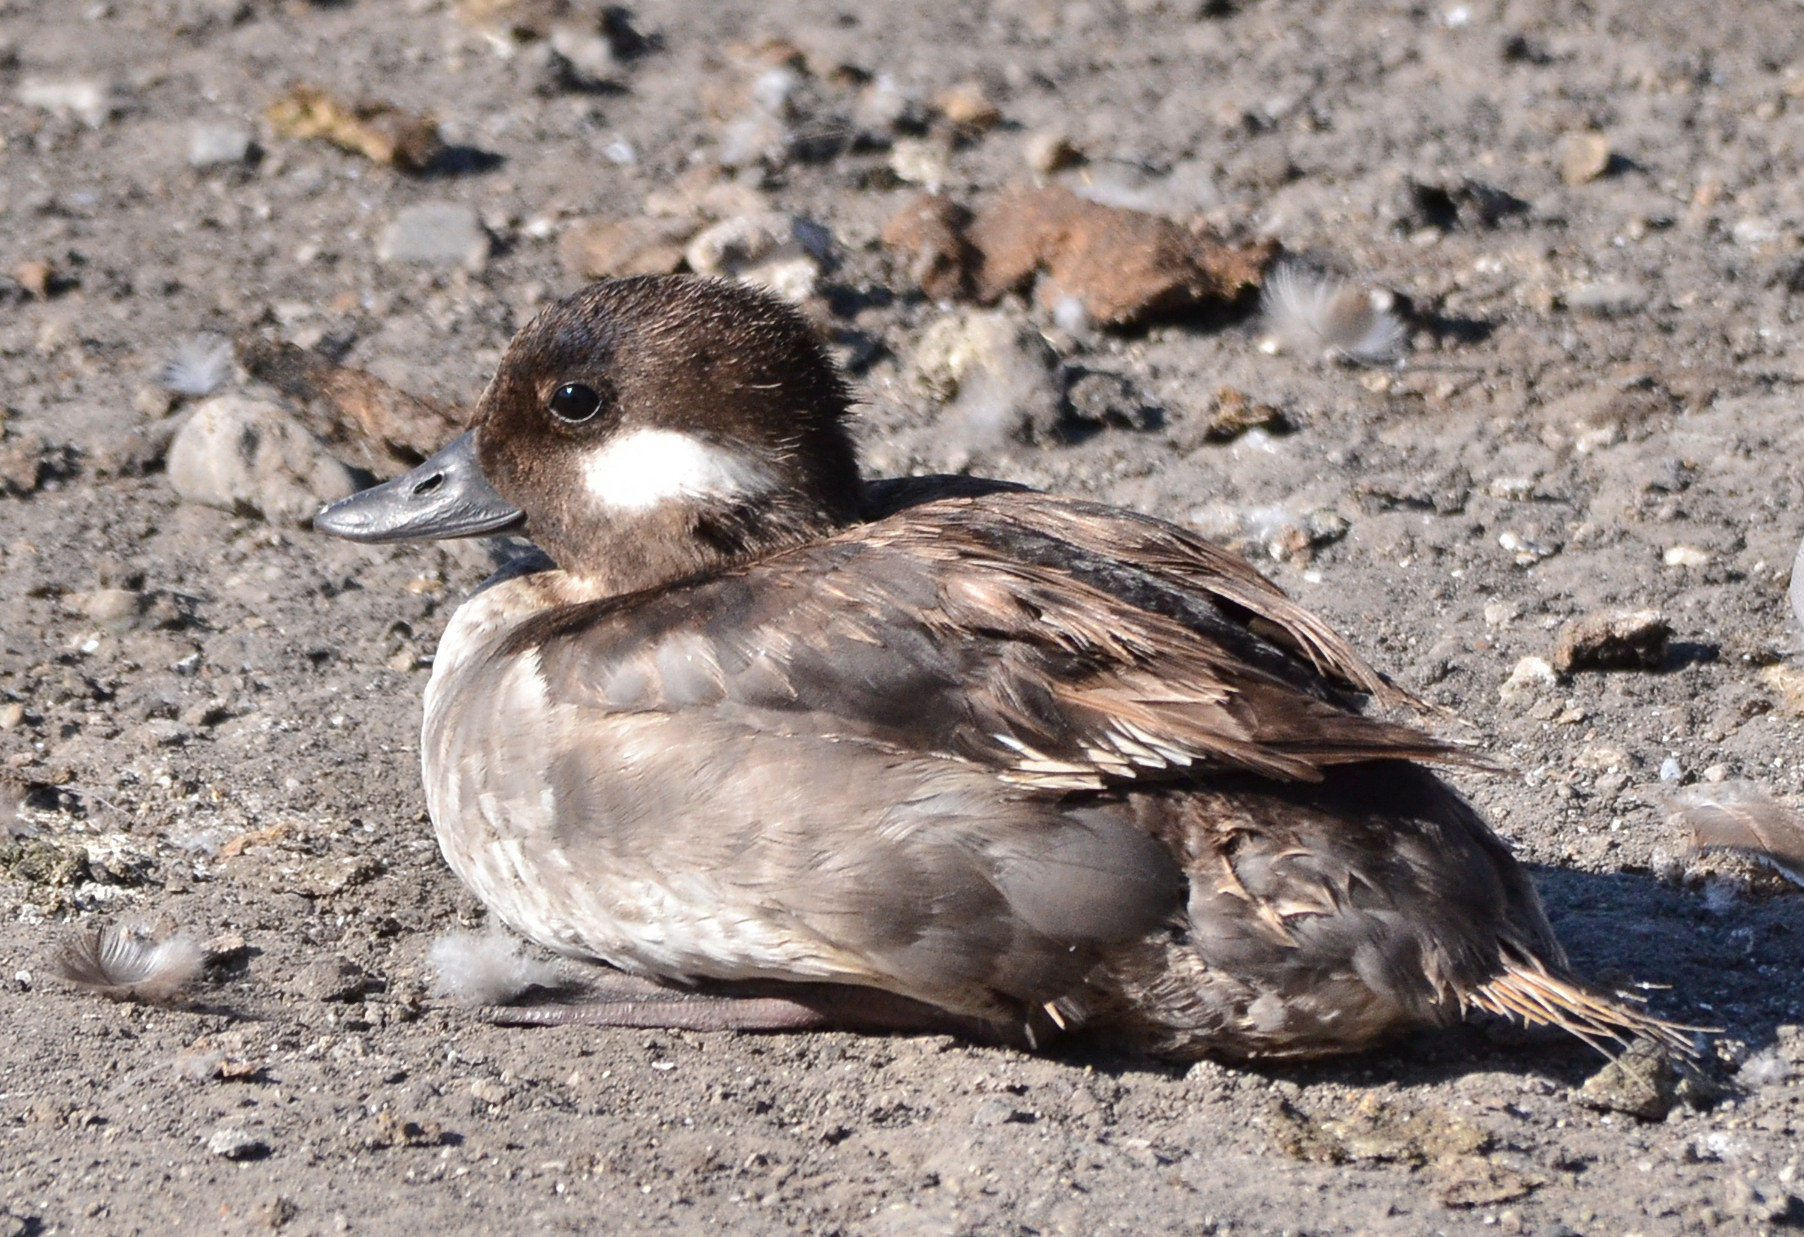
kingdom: Animalia
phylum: Chordata
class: Aves
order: Anseriformes
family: Anatidae
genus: Bucephala
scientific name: Bucephala albeola
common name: Bufflehead
